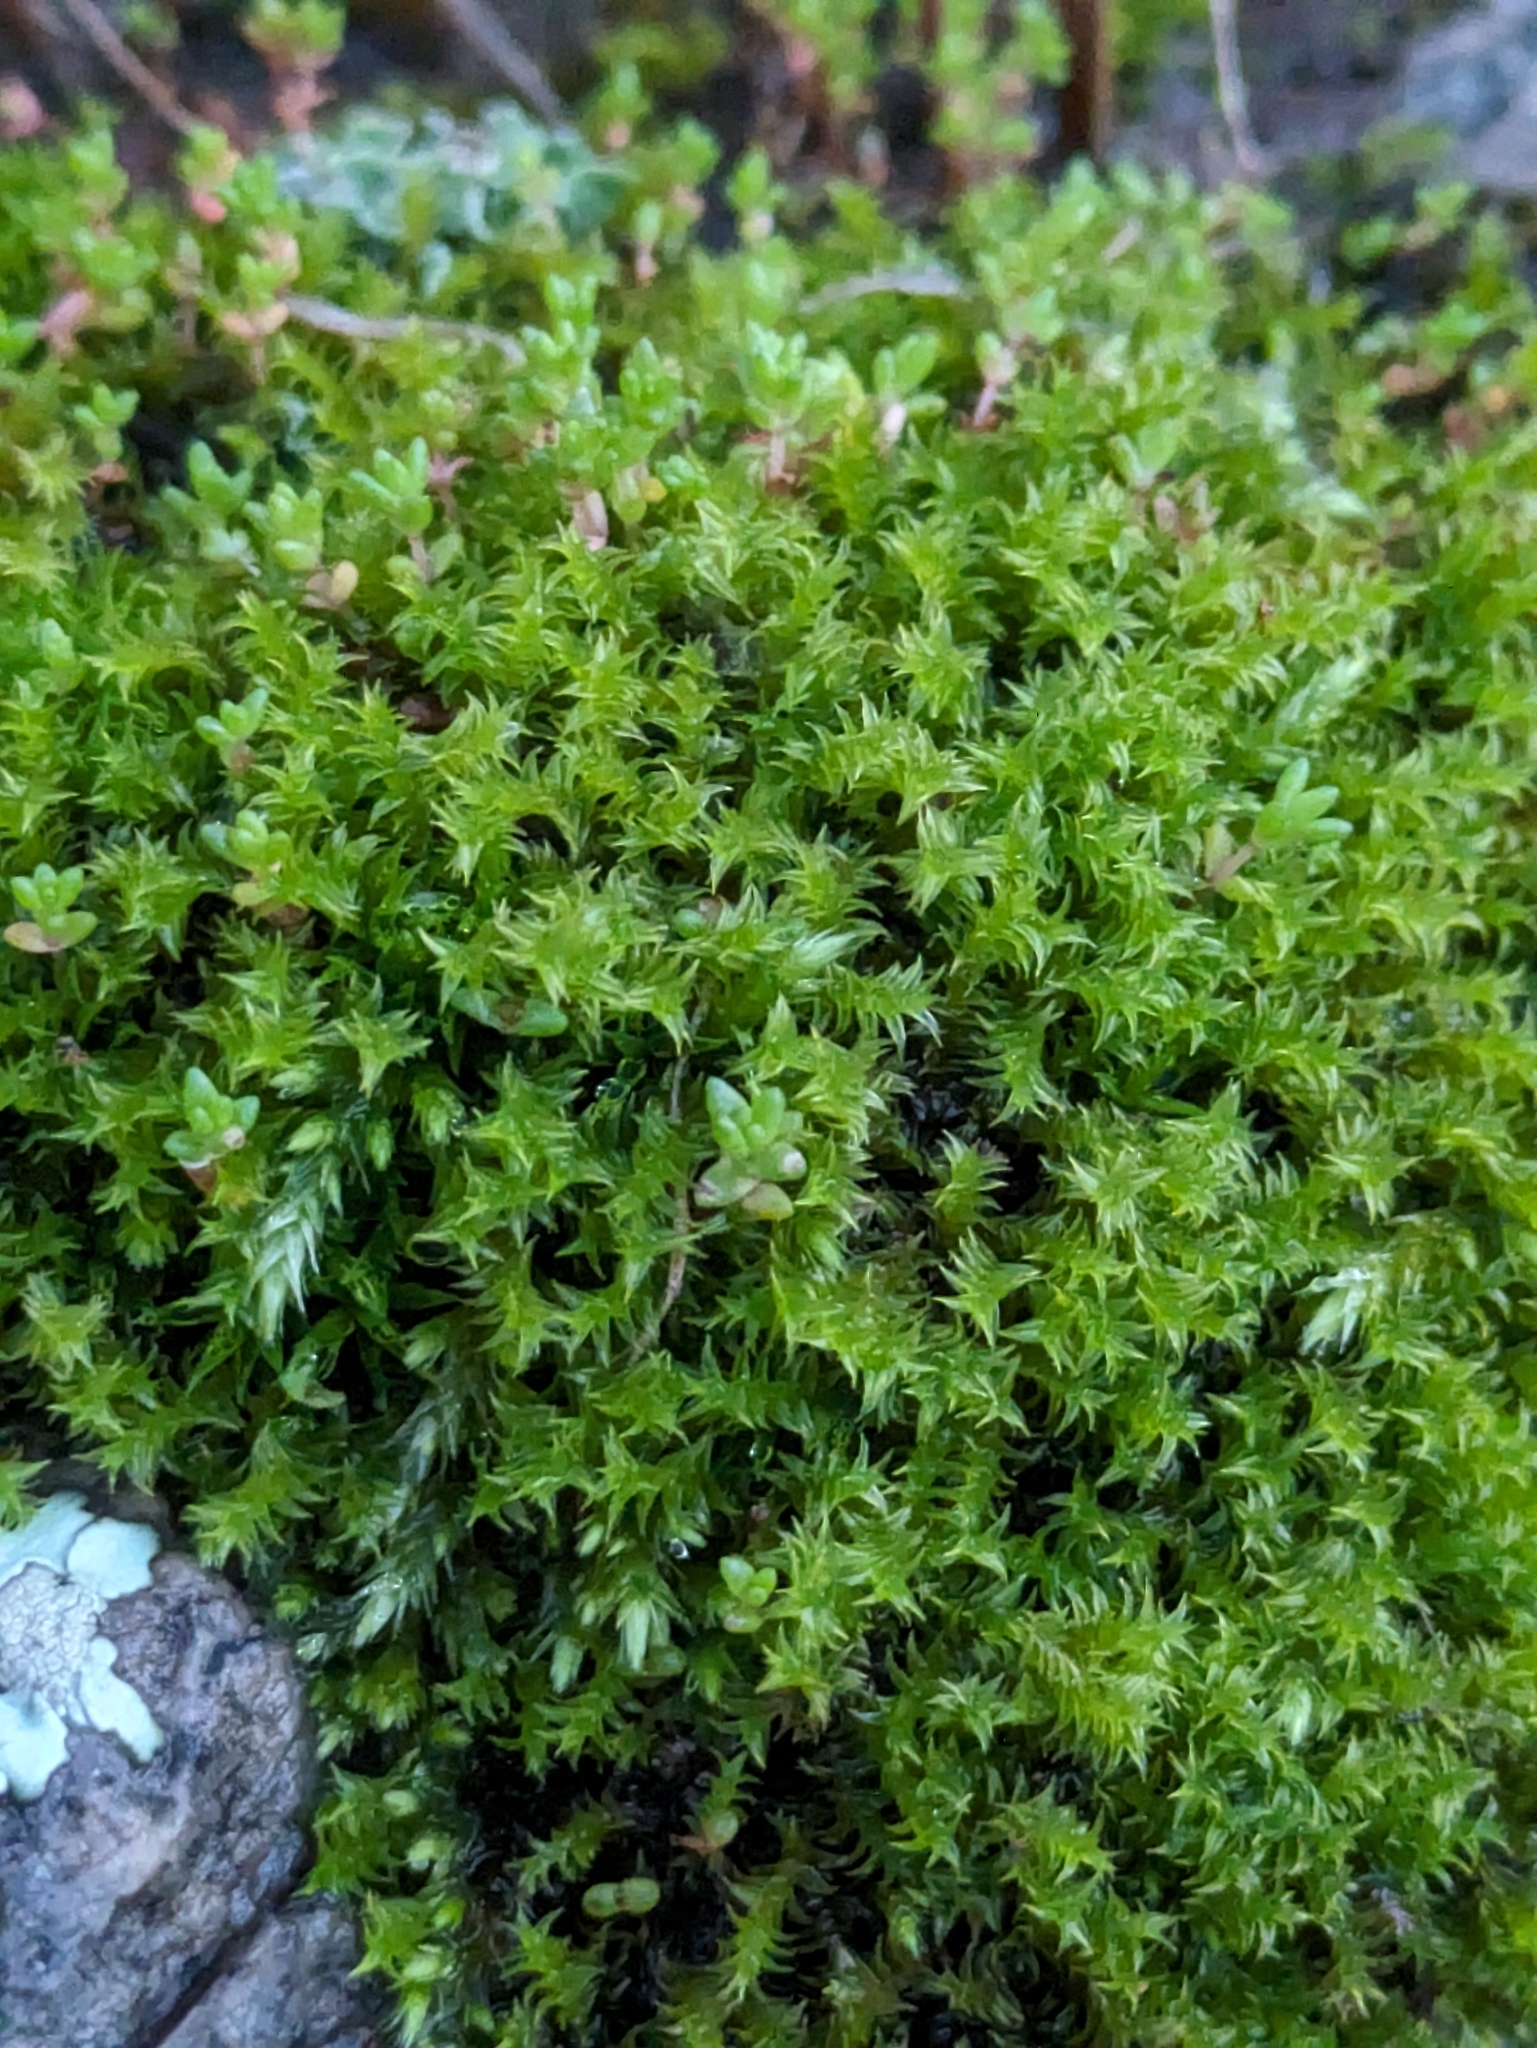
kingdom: Plantae
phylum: Bryophyta
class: Bryopsida
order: Pottiales
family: Pottiaceae
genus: Triquetrella
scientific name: Triquetrella californica
